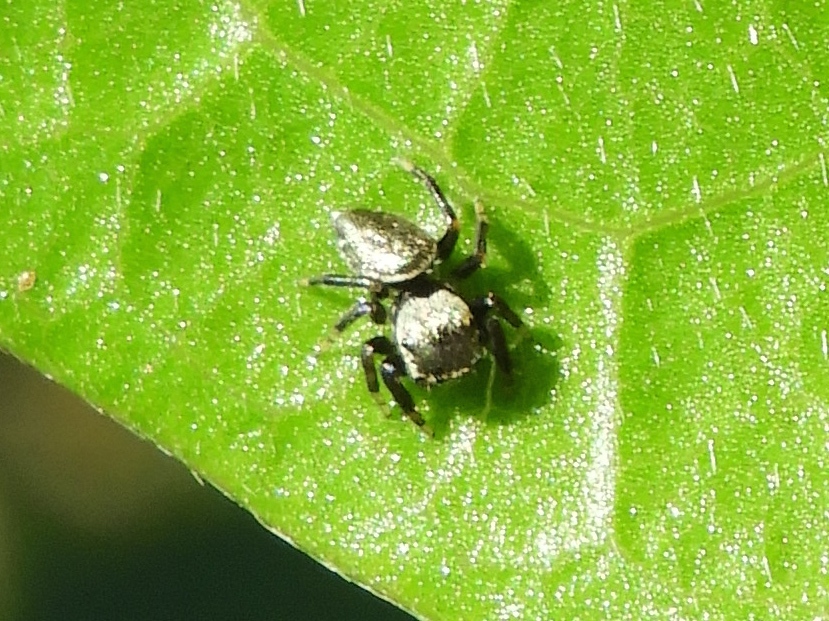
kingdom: Animalia
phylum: Arthropoda
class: Arachnida
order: Araneae
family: Salticidae
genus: Sassacus
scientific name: Sassacus vitis
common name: Jumping spiders
